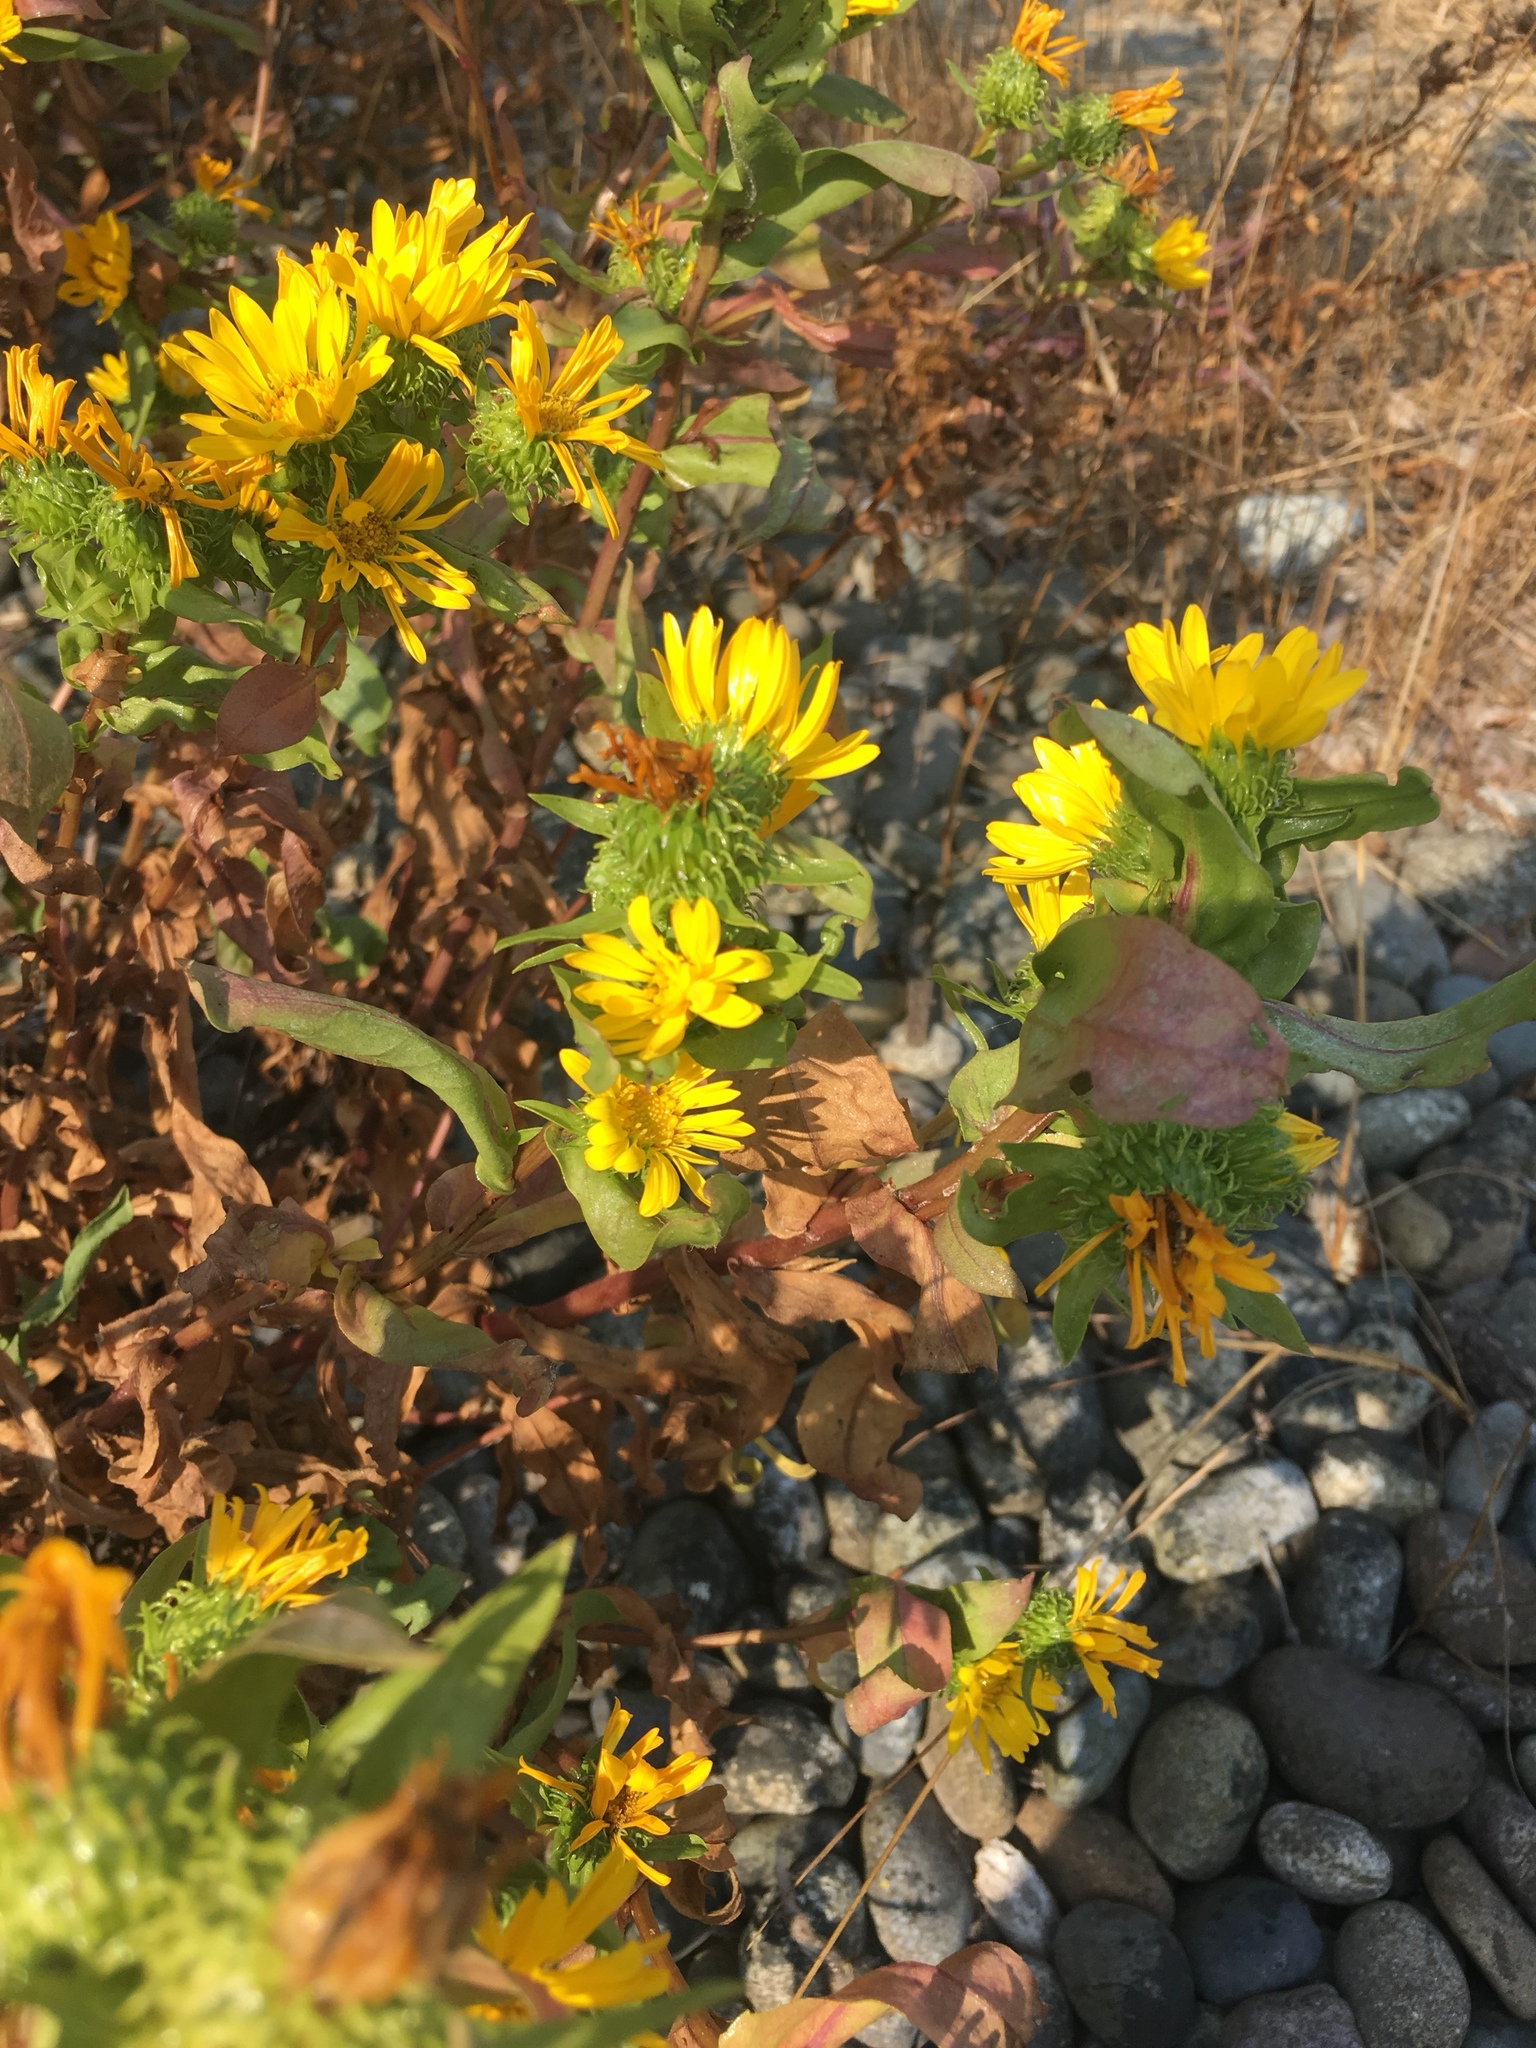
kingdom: Plantae
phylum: Tracheophyta
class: Magnoliopsida
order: Asterales
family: Asteraceae
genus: Grindelia
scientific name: Grindelia integrifolia
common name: Puget sound gumweed
